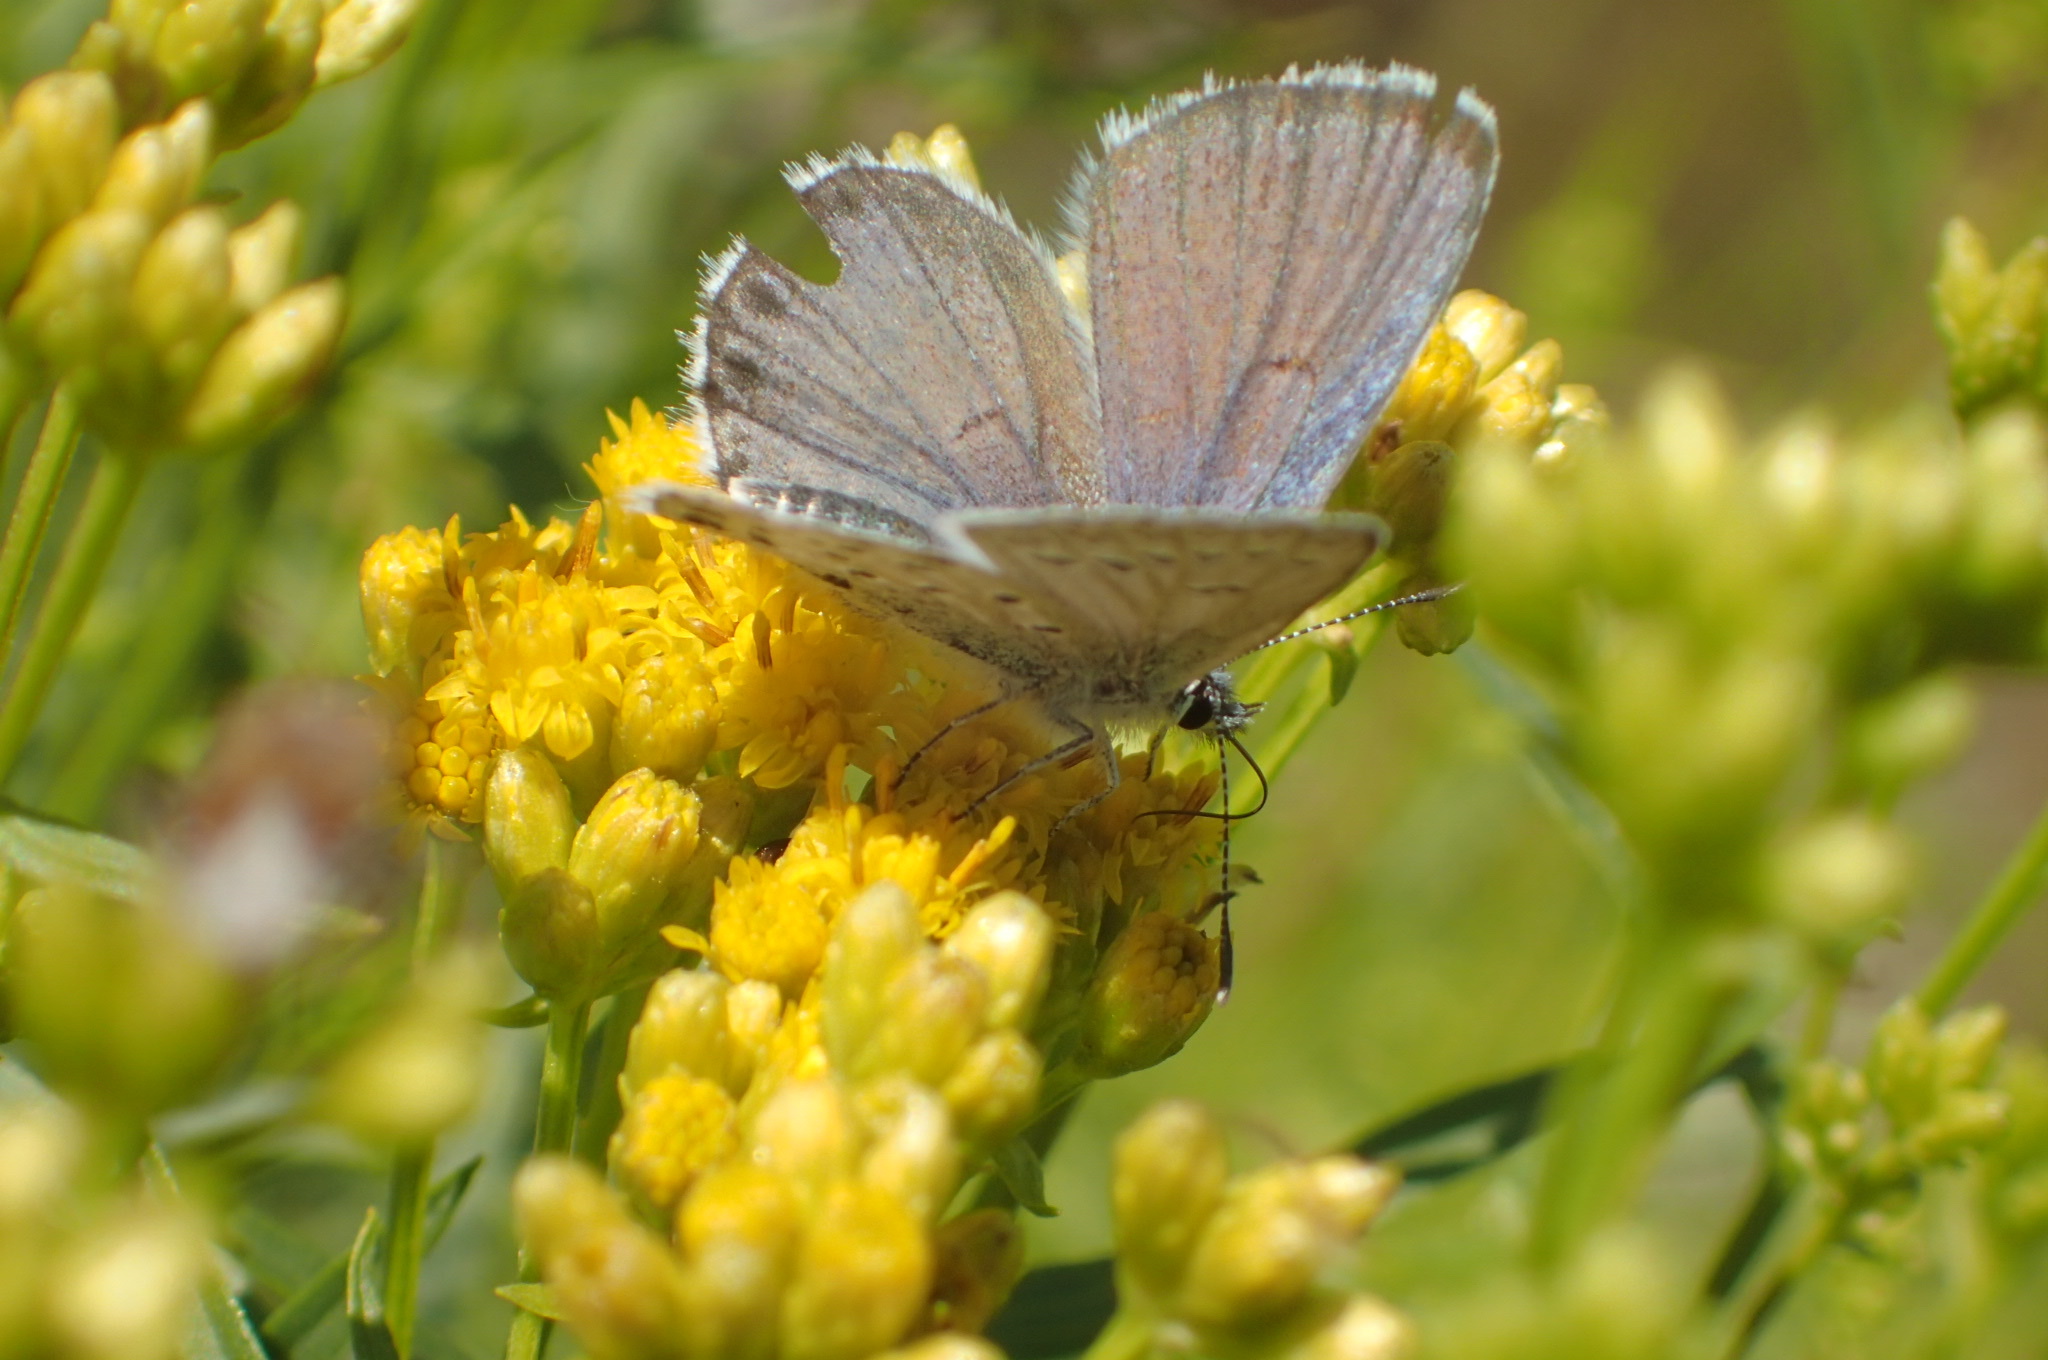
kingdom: Animalia
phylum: Arthropoda
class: Insecta
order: Lepidoptera
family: Lycaenidae
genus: Lycaeides
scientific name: Lycaeides idas
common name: Northern blue
